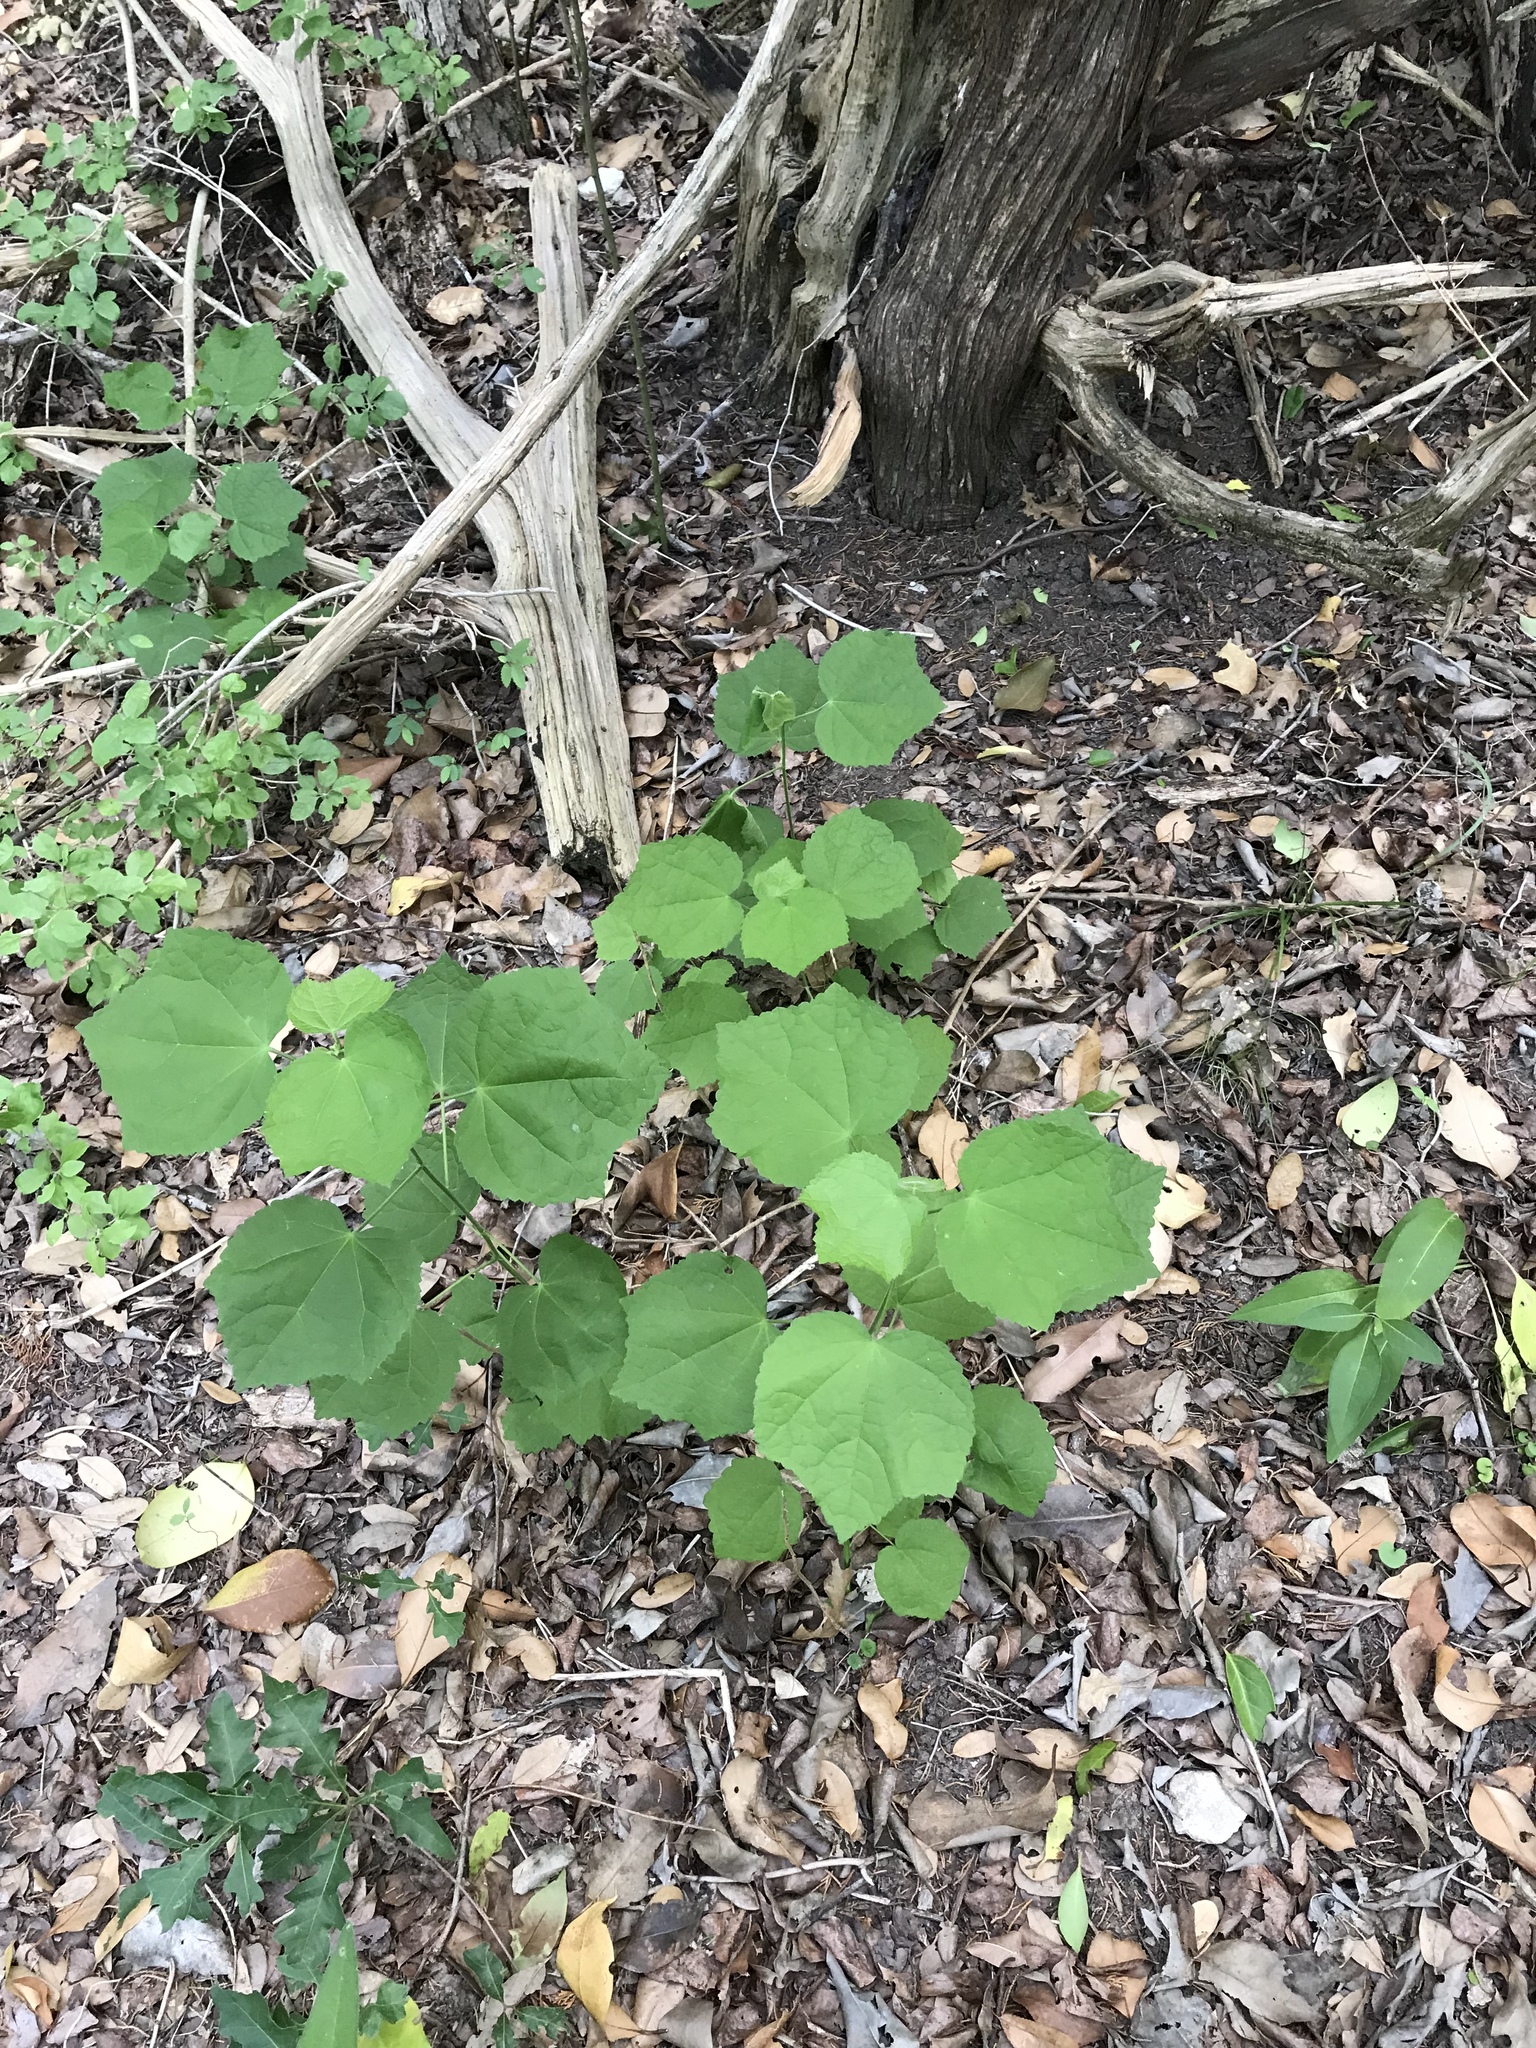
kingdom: Plantae
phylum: Tracheophyta
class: Magnoliopsida
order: Malvales
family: Malvaceae
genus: Malvaviscus
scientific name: Malvaviscus arboreus
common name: Wax mallow
